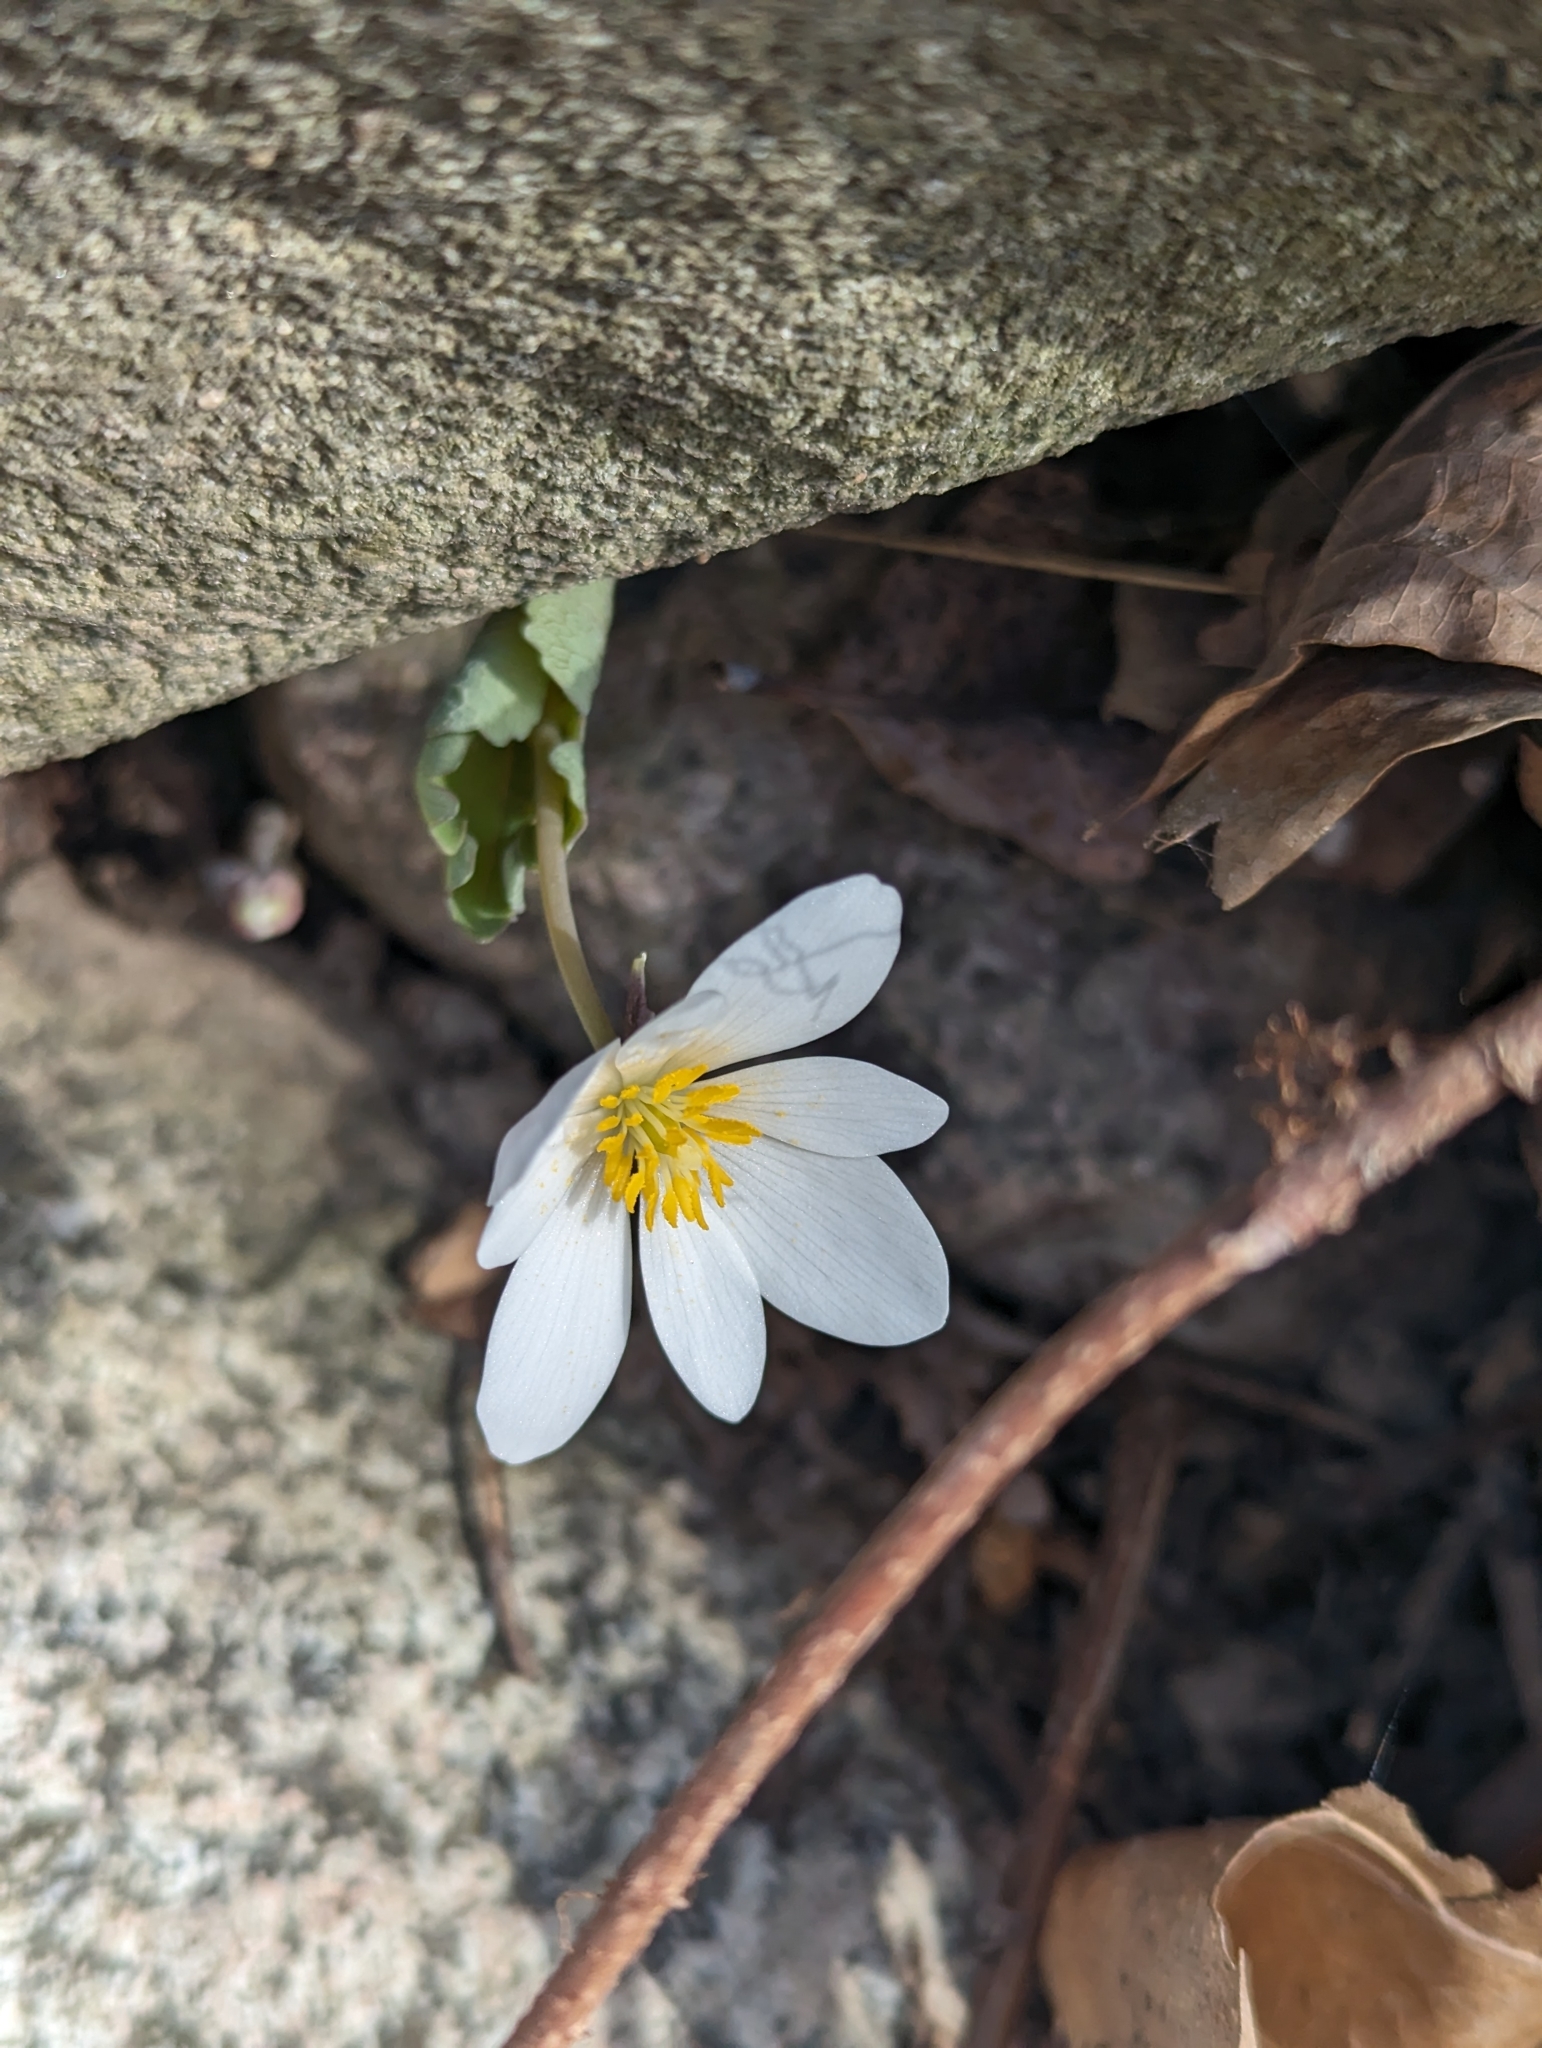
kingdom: Plantae
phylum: Tracheophyta
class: Magnoliopsida
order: Ranunculales
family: Papaveraceae
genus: Sanguinaria
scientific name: Sanguinaria canadensis
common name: Bloodroot
